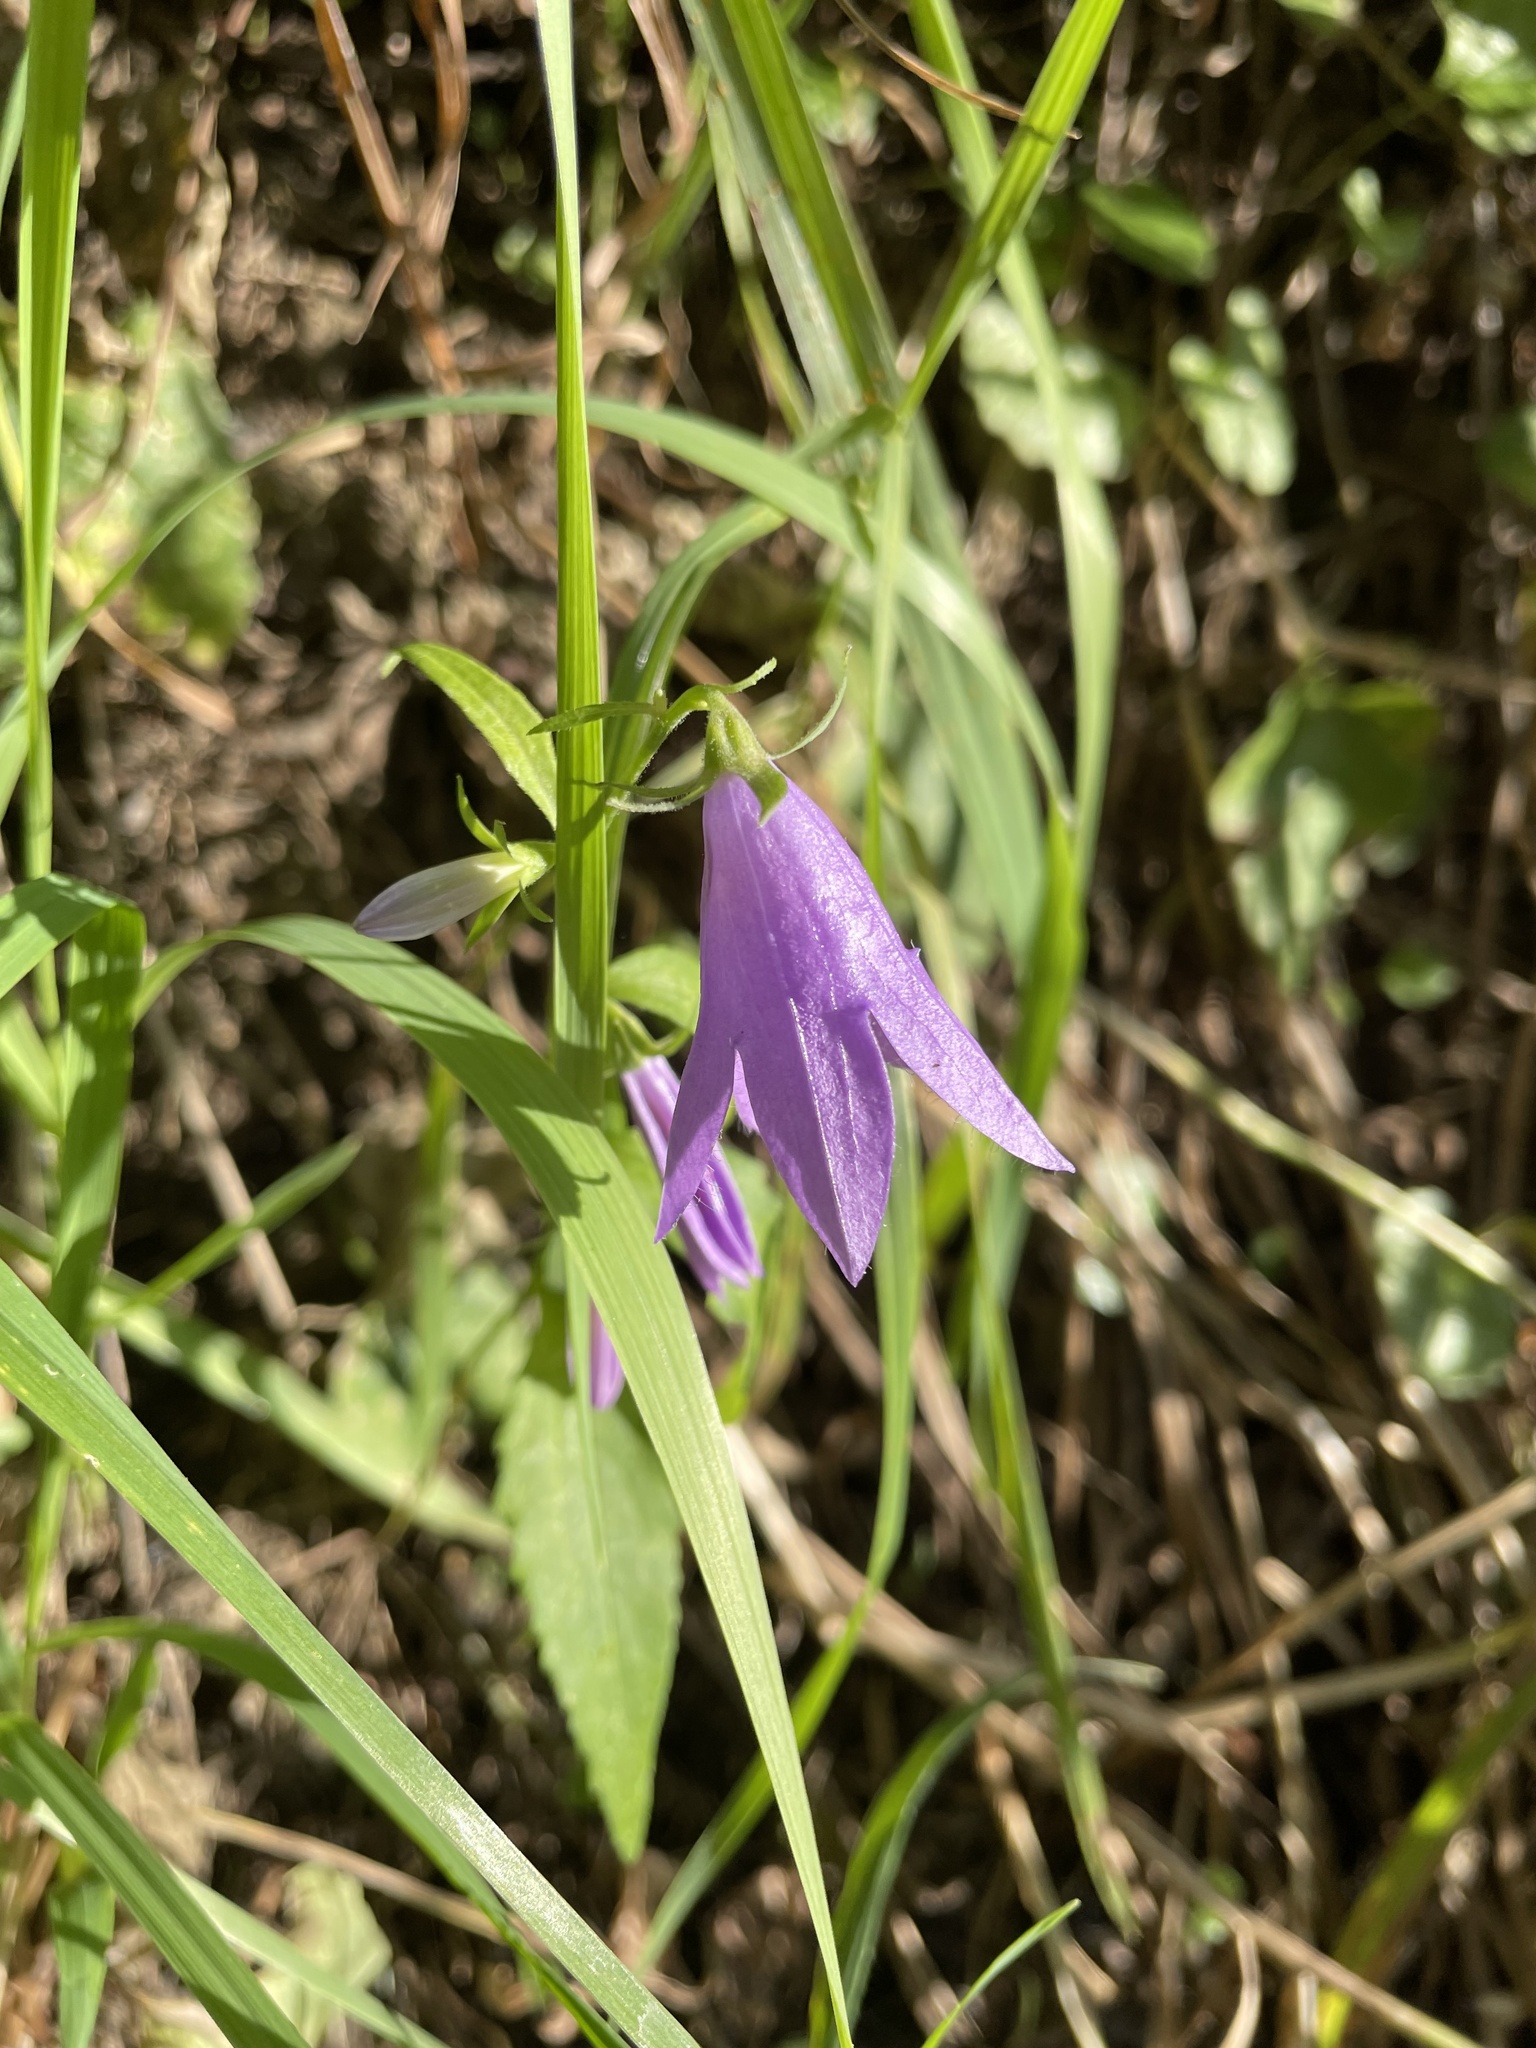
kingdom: Plantae
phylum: Tracheophyta
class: Magnoliopsida
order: Asterales
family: Campanulaceae
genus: Campanula
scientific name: Campanula rapunculoides
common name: Creeping bellflower
